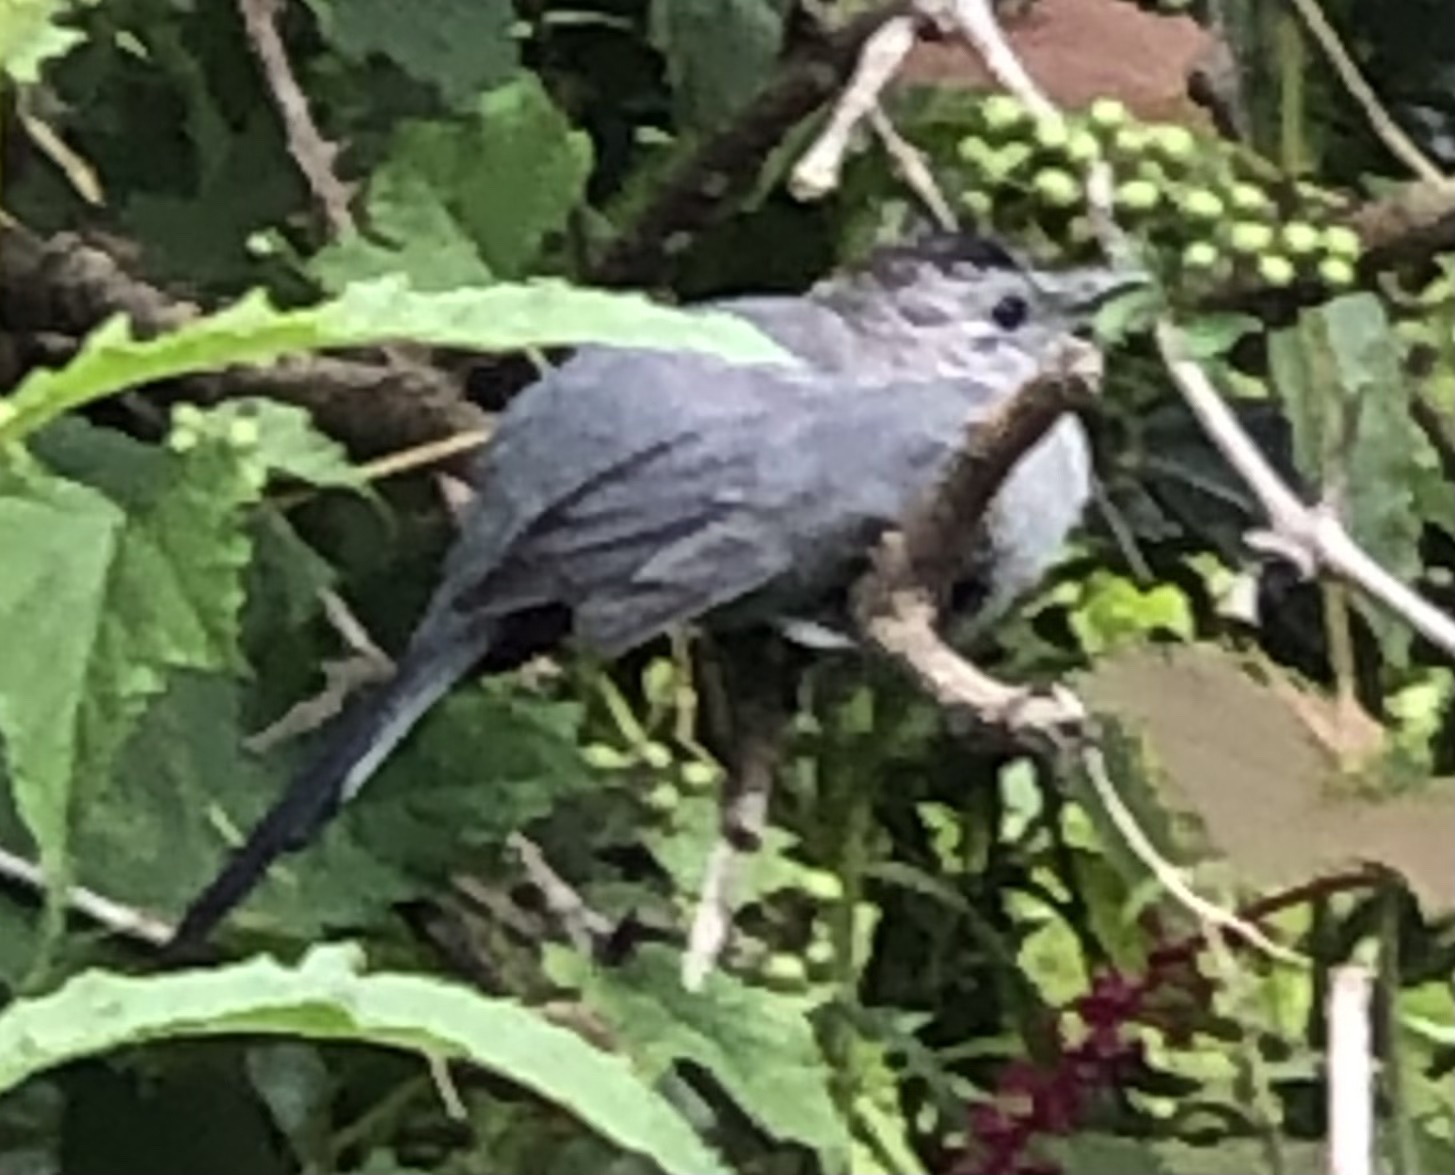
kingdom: Animalia
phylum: Chordata
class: Aves
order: Passeriformes
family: Mimidae
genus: Dumetella
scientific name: Dumetella carolinensis
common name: Gray catbird
